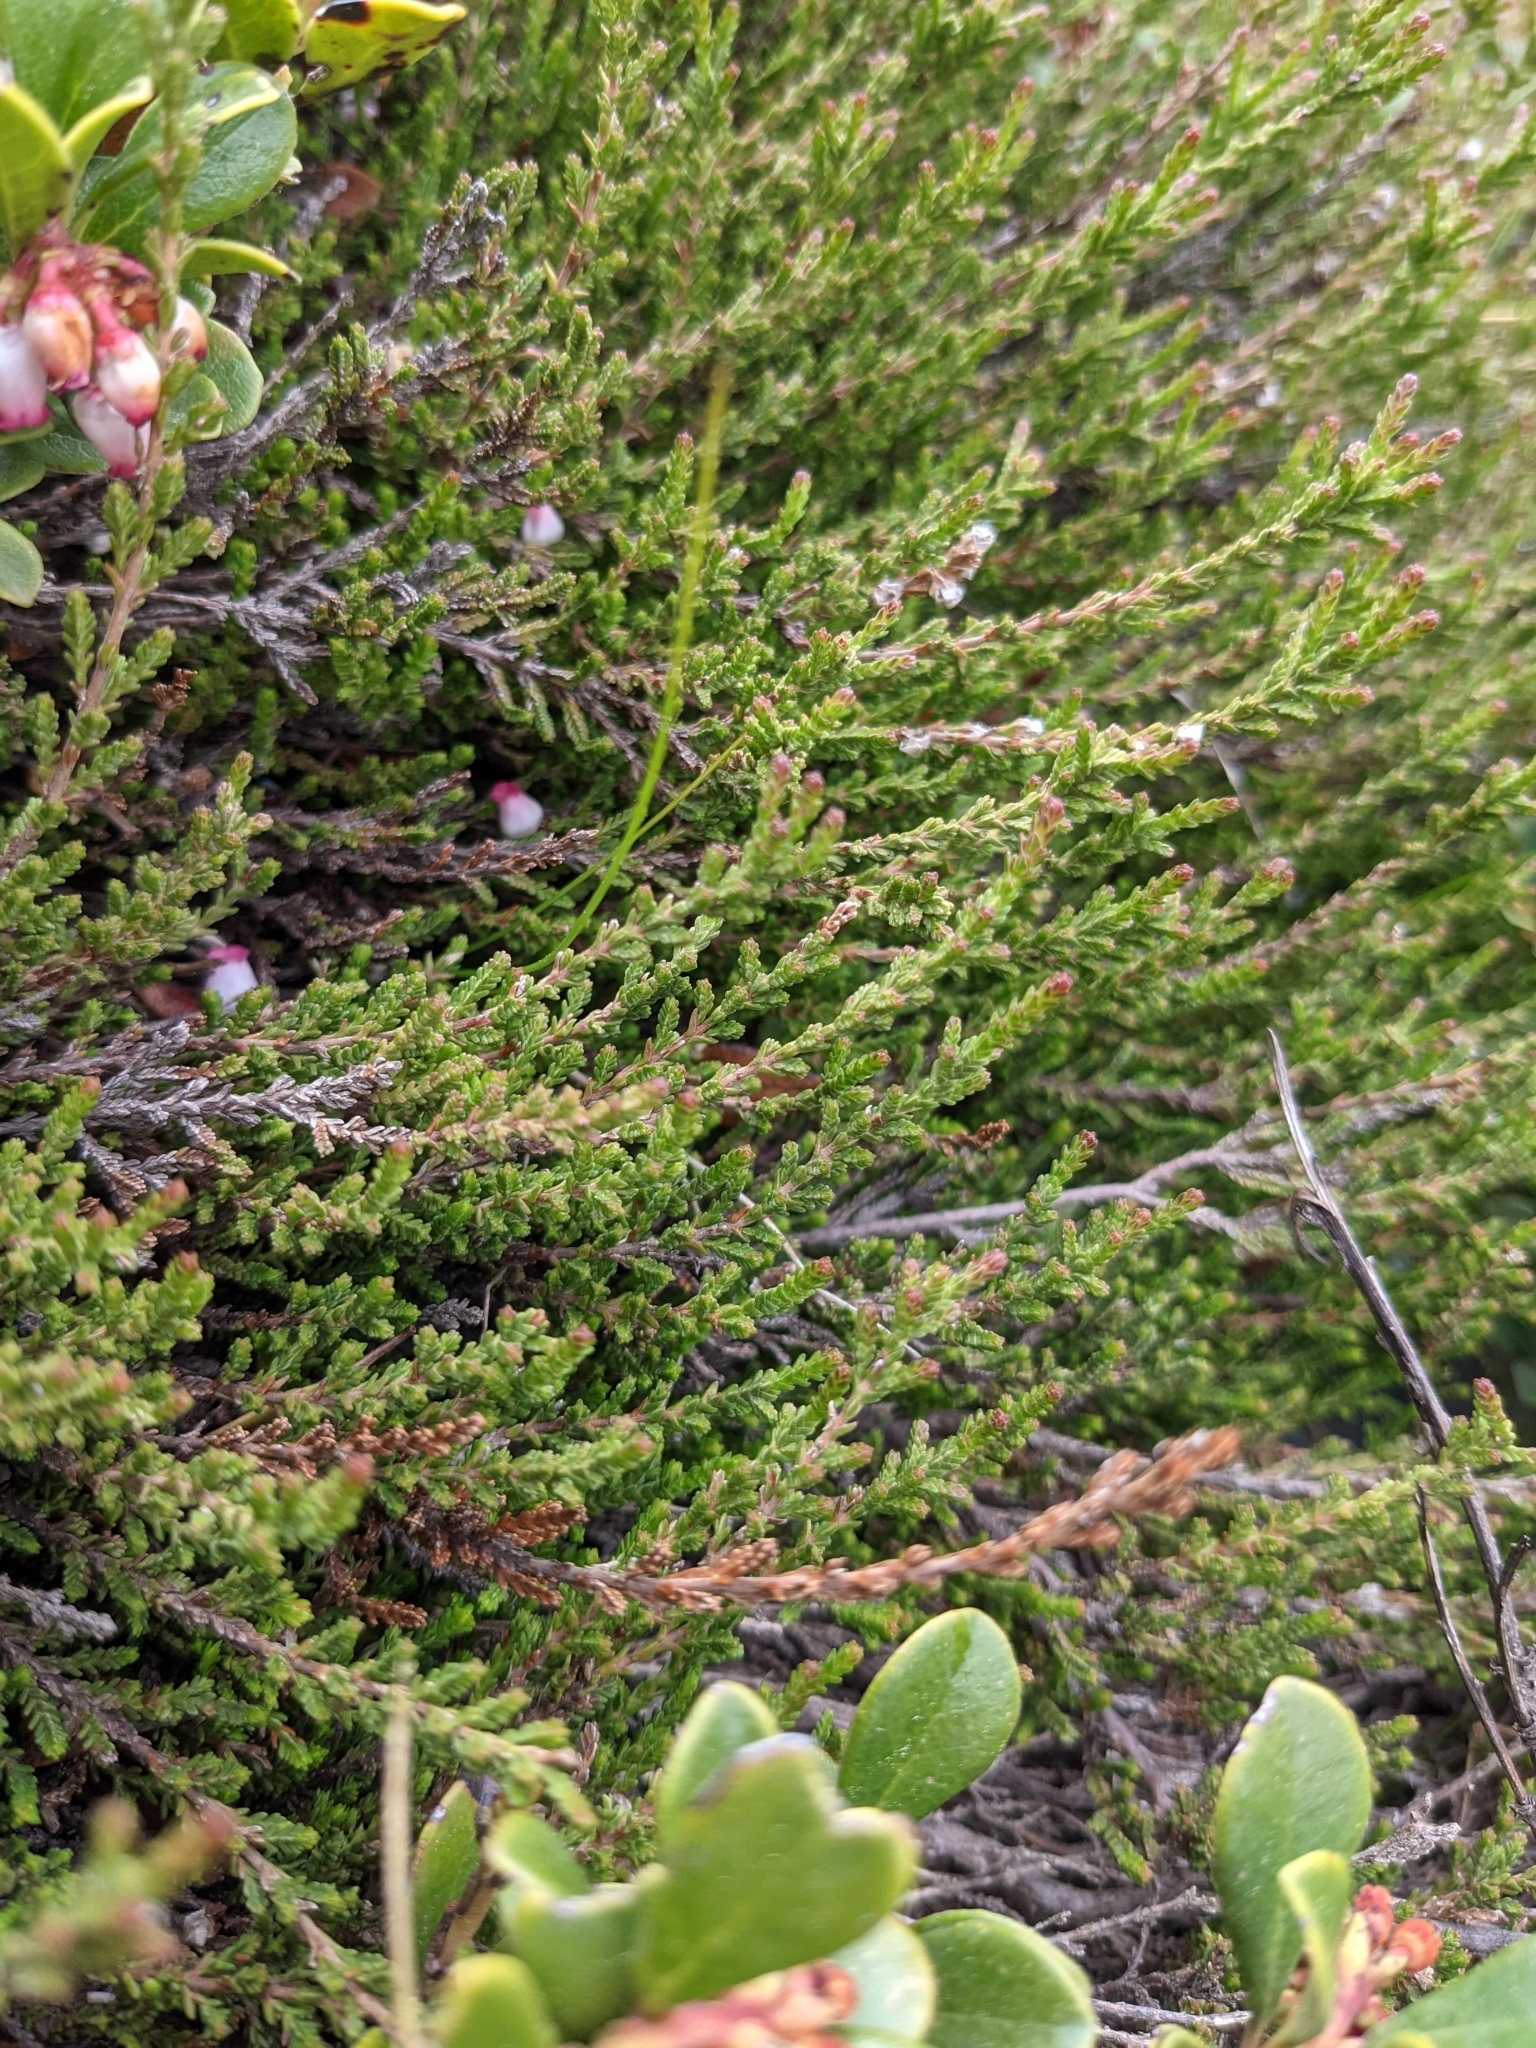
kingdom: Plantae
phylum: Tracheophyta
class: Magnoliopsida
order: Ericales
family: Ericaceae
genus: Calluna
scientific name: Calluna vulgaris
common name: Heather
